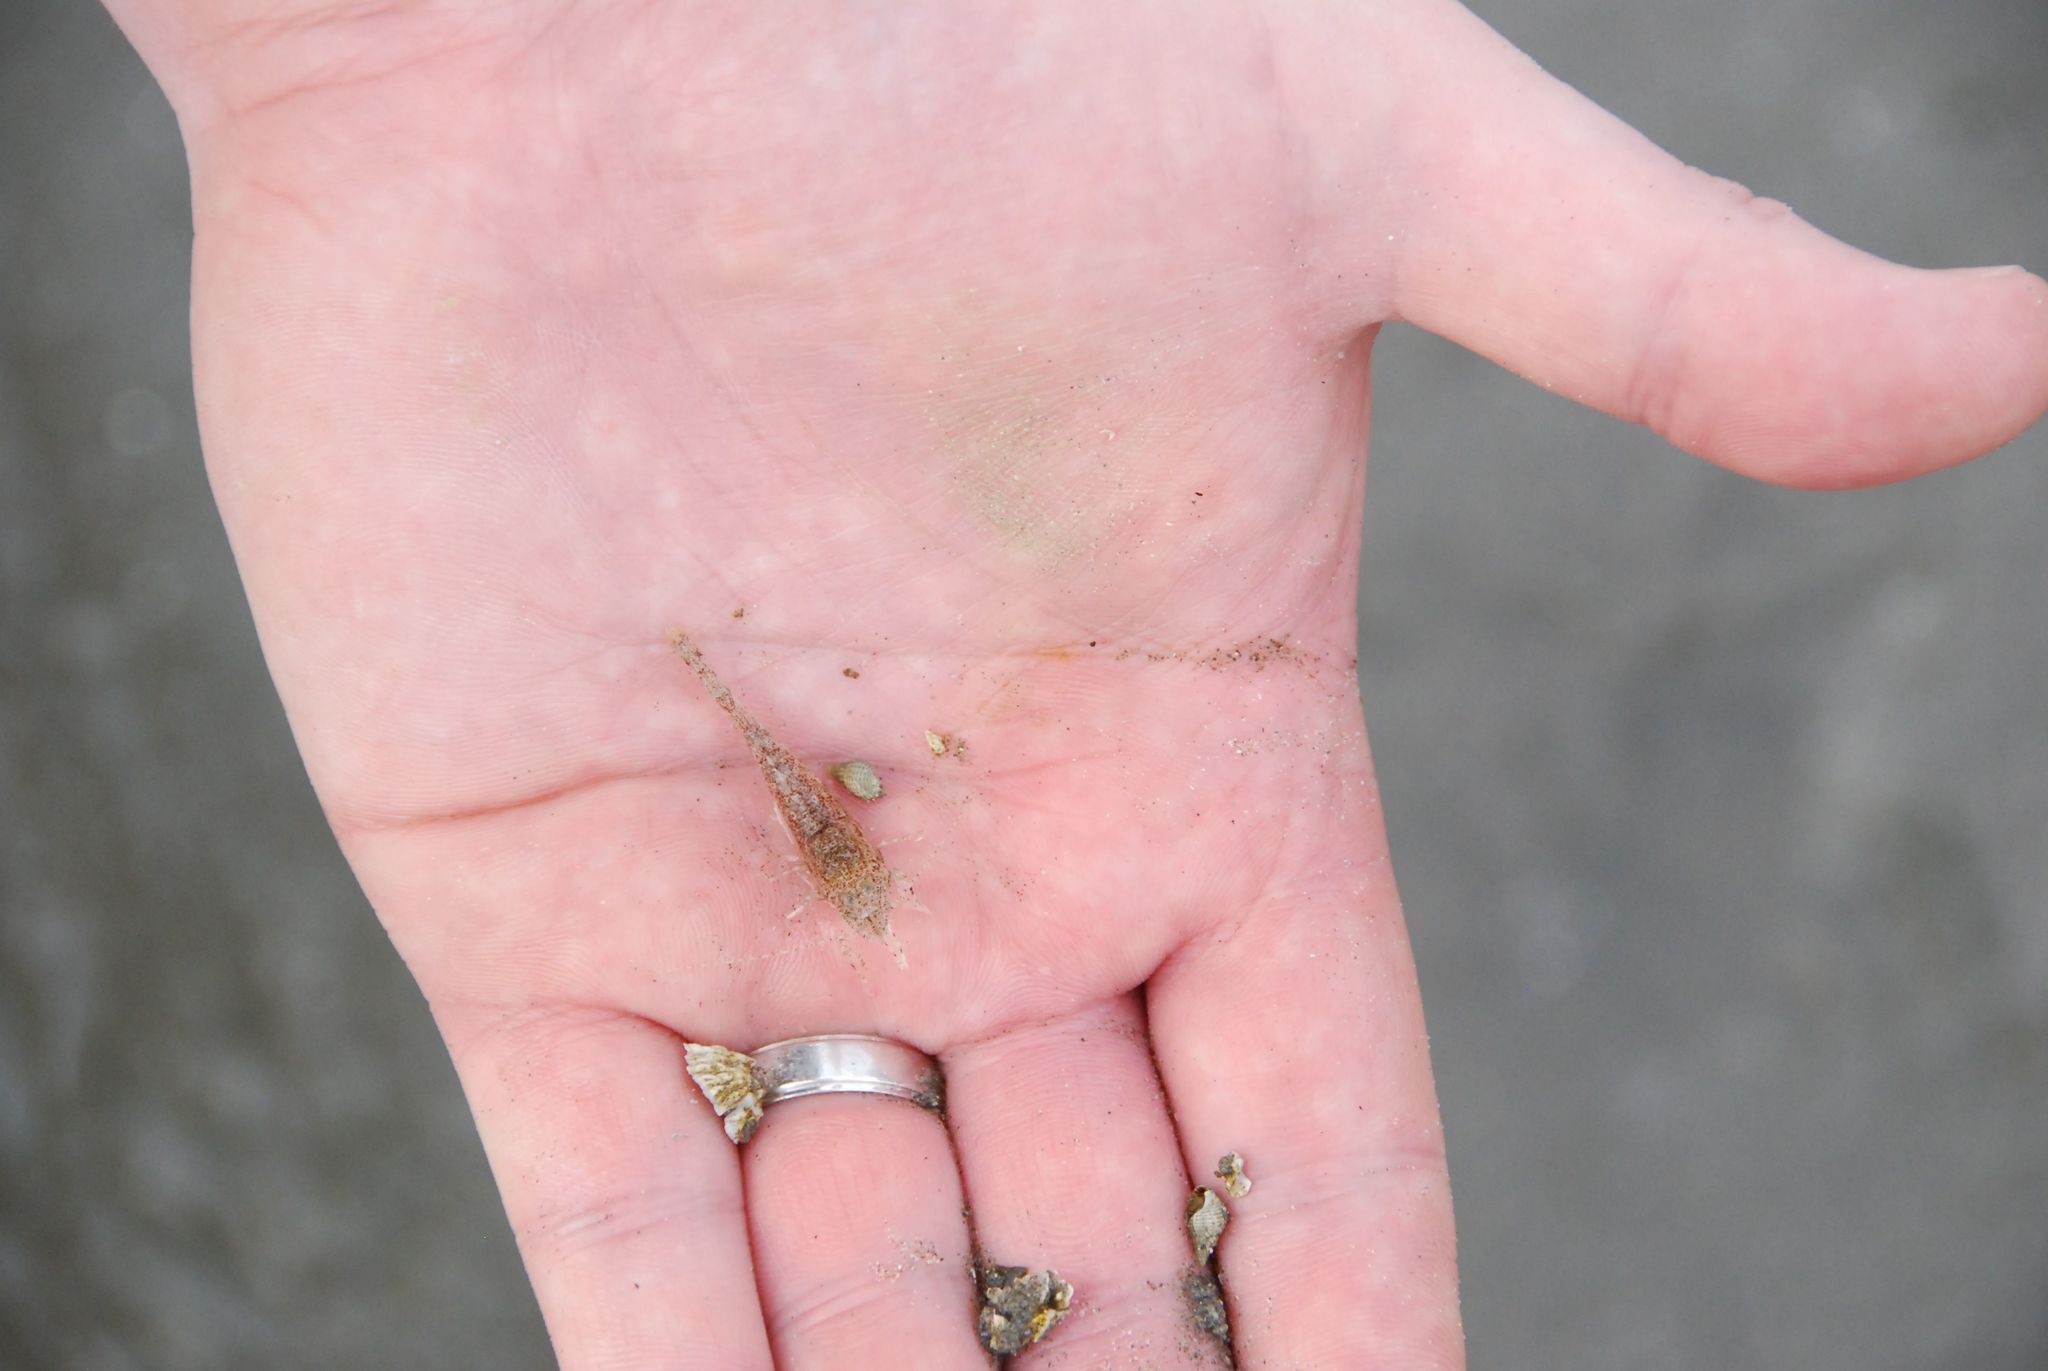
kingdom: Animalia
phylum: Arthropoda
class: Malacostraca
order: Decapoda
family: Crangonidae
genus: Crangon
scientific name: Crangon septemspinosa
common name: Bail shrimp
